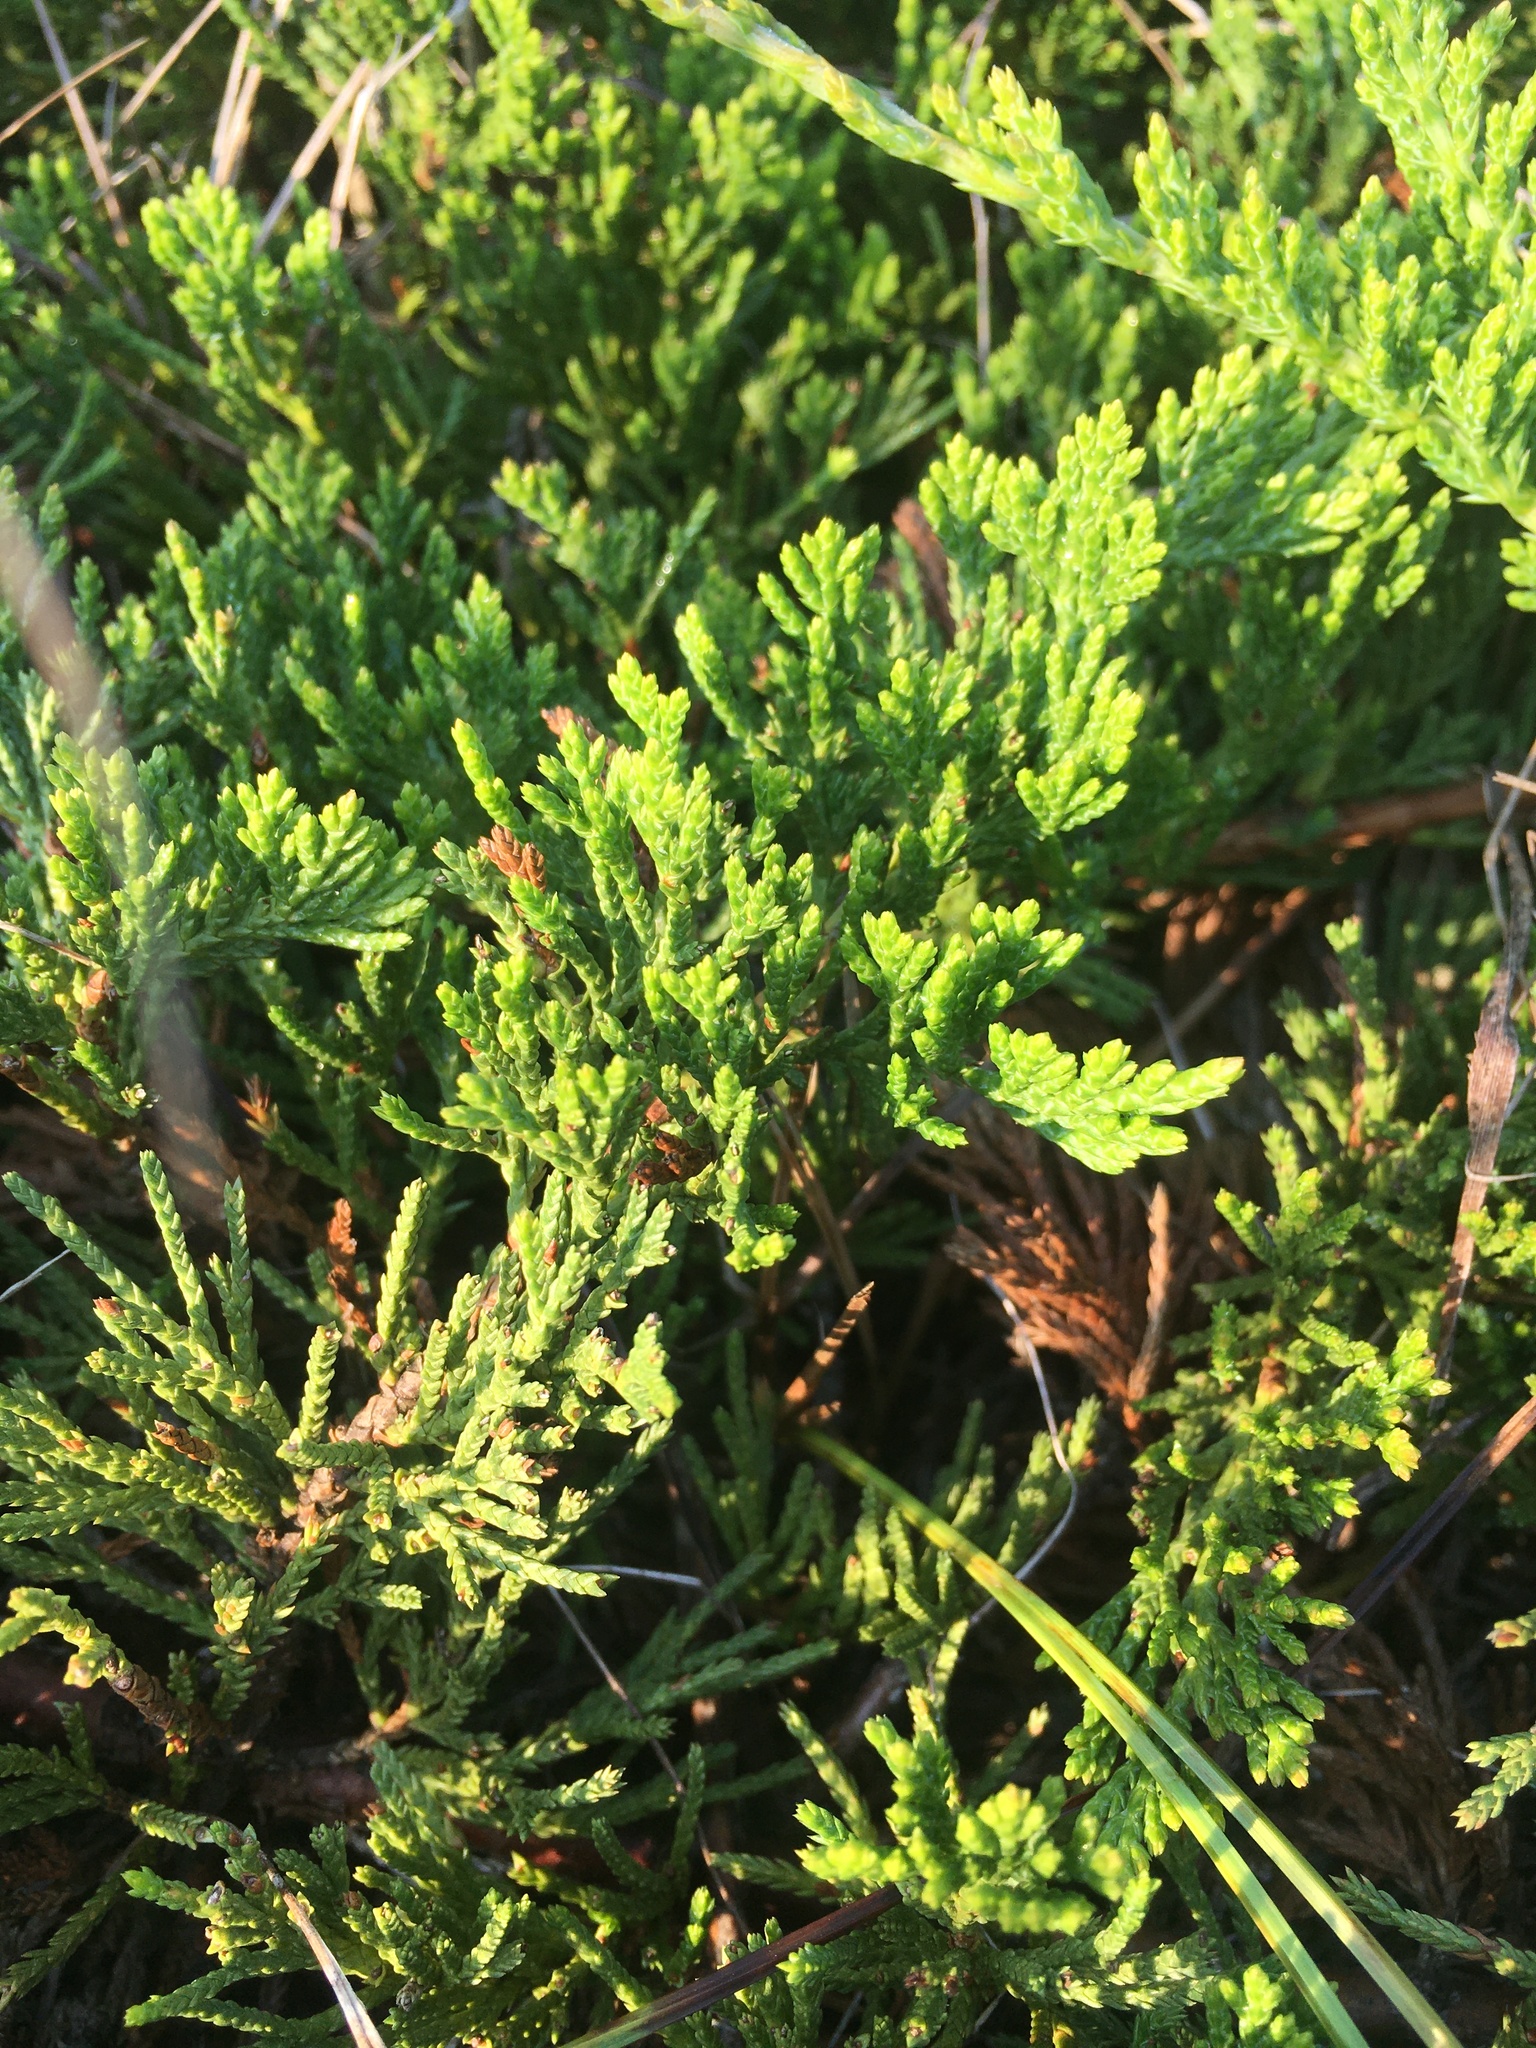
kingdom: Plantae
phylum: Tracheophyta
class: Pinopsida
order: Pinales
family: Cupressaceae
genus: Juniperus
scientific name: Juniperus horizontalis
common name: Creeping juniper
